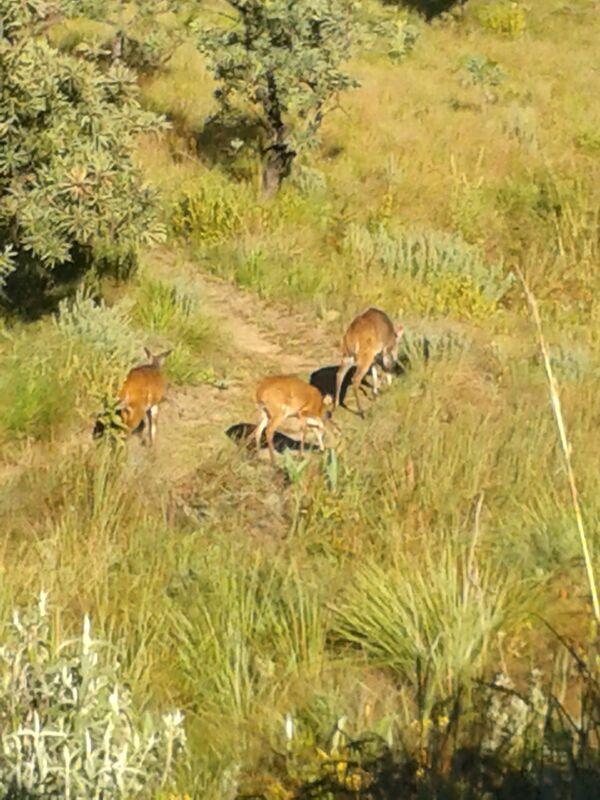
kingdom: Animalia
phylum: Chordata
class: Mammalia
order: Artiodactyla
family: Bovidae
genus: Tragelaphus
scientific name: Tragelaphus scriptus
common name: Bushbuck
